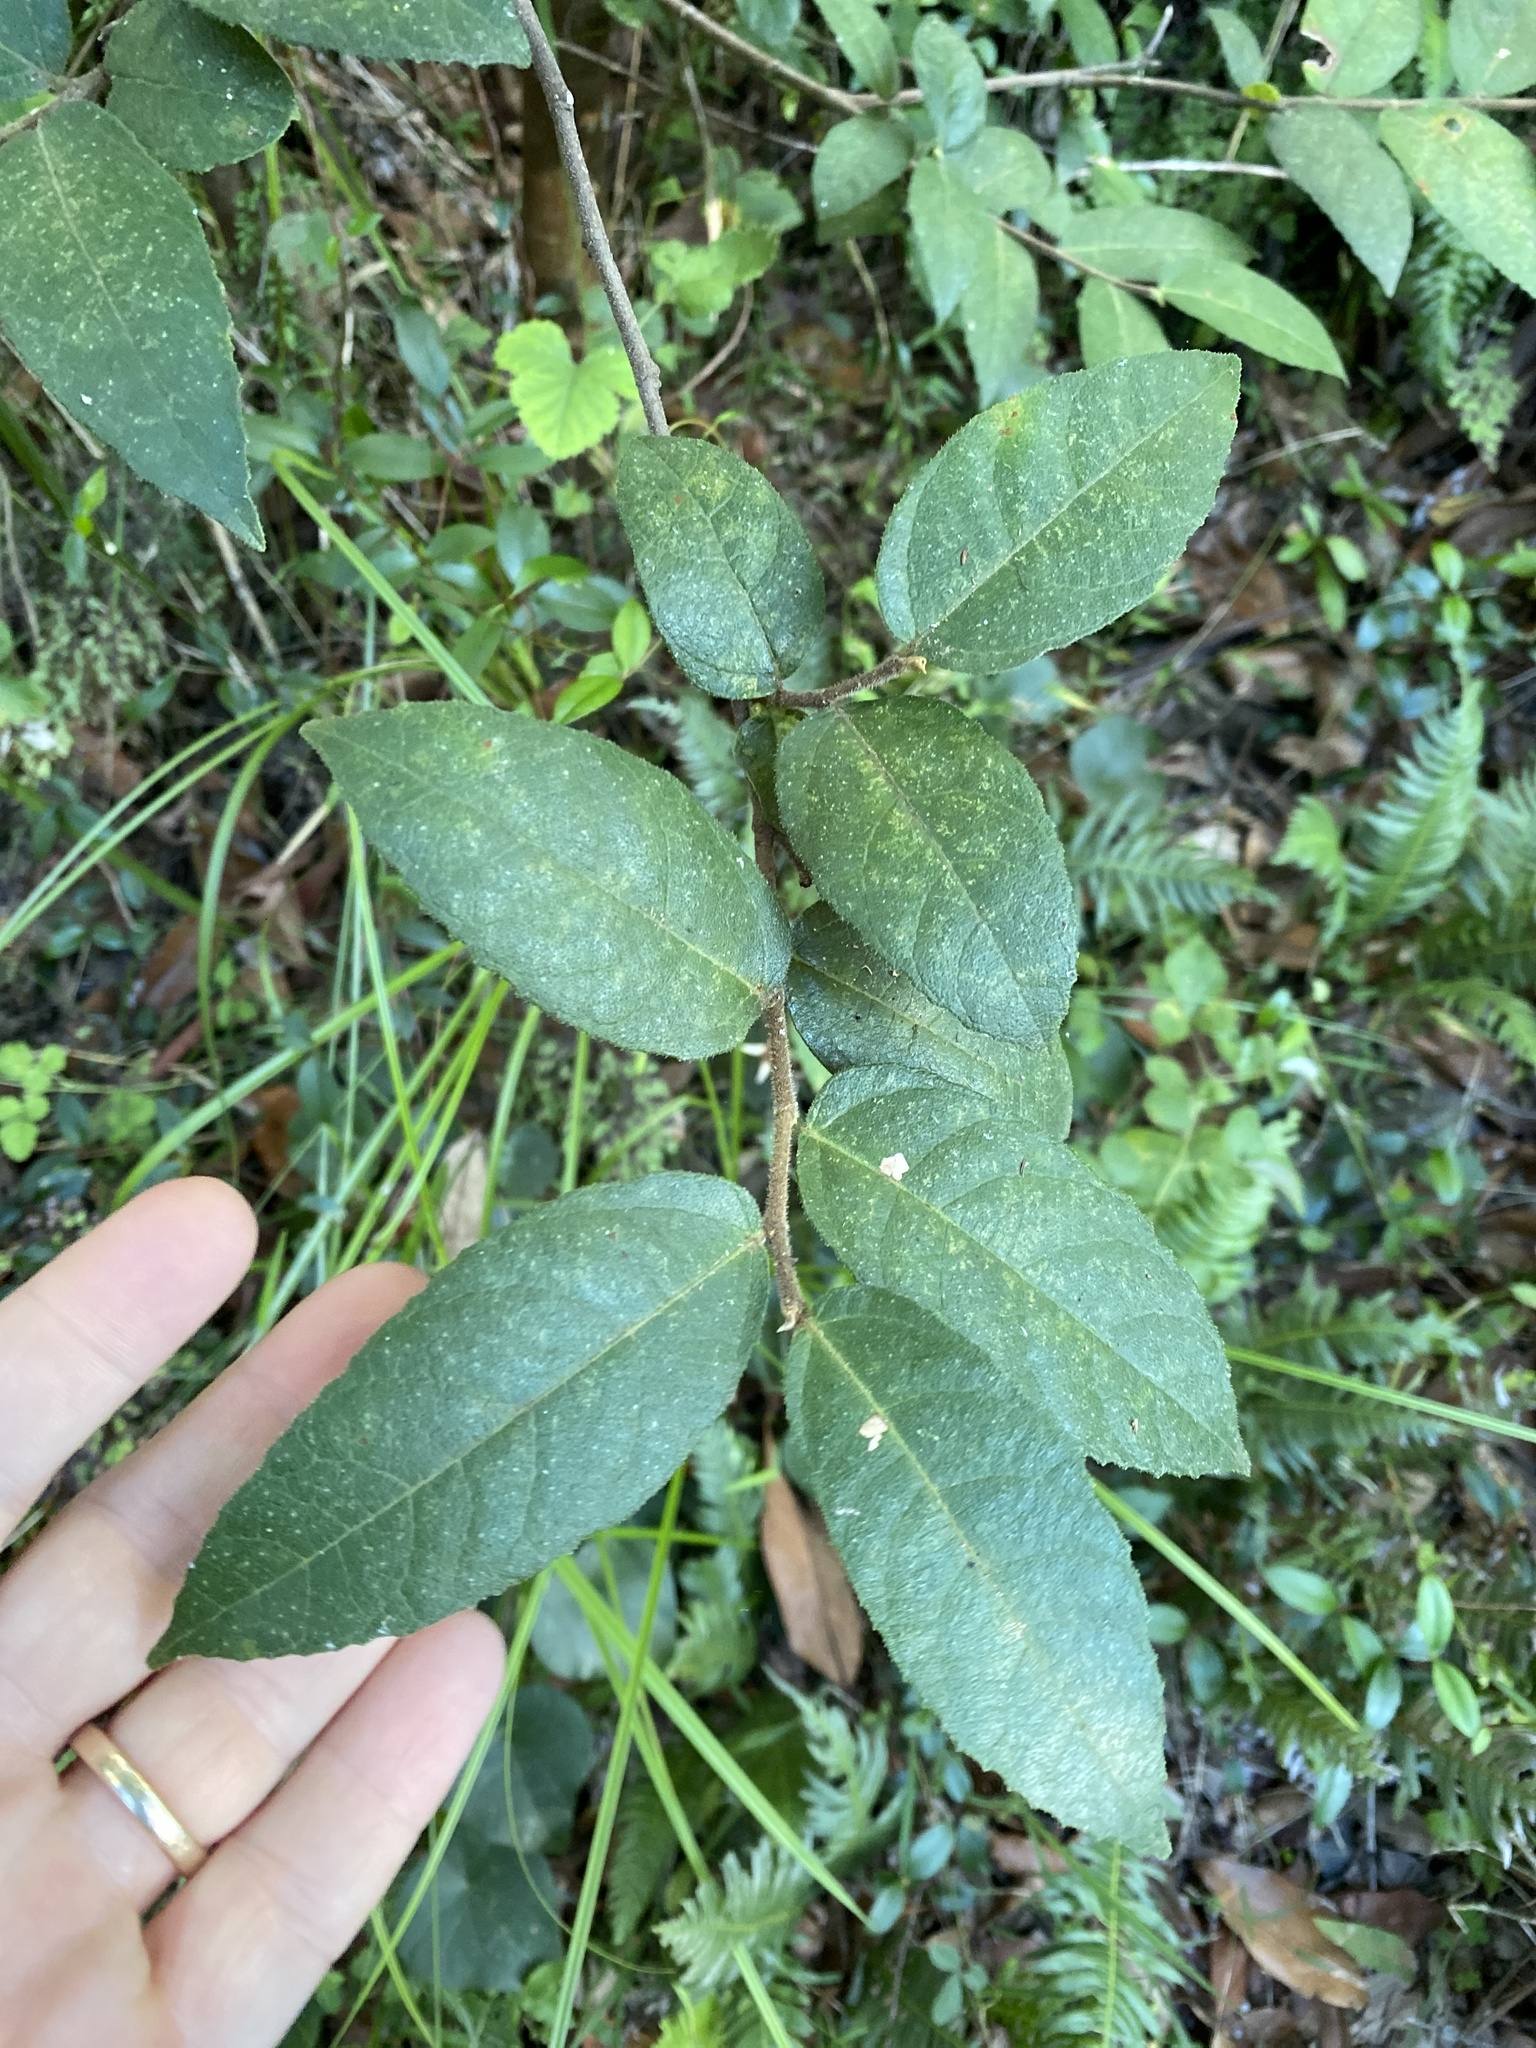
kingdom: Plantae
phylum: Tracheophyta
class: Magnoliopsida
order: Rosales
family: Moraceae
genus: Ficus
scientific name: Ficus coronata
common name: Creek sandpaper fig
